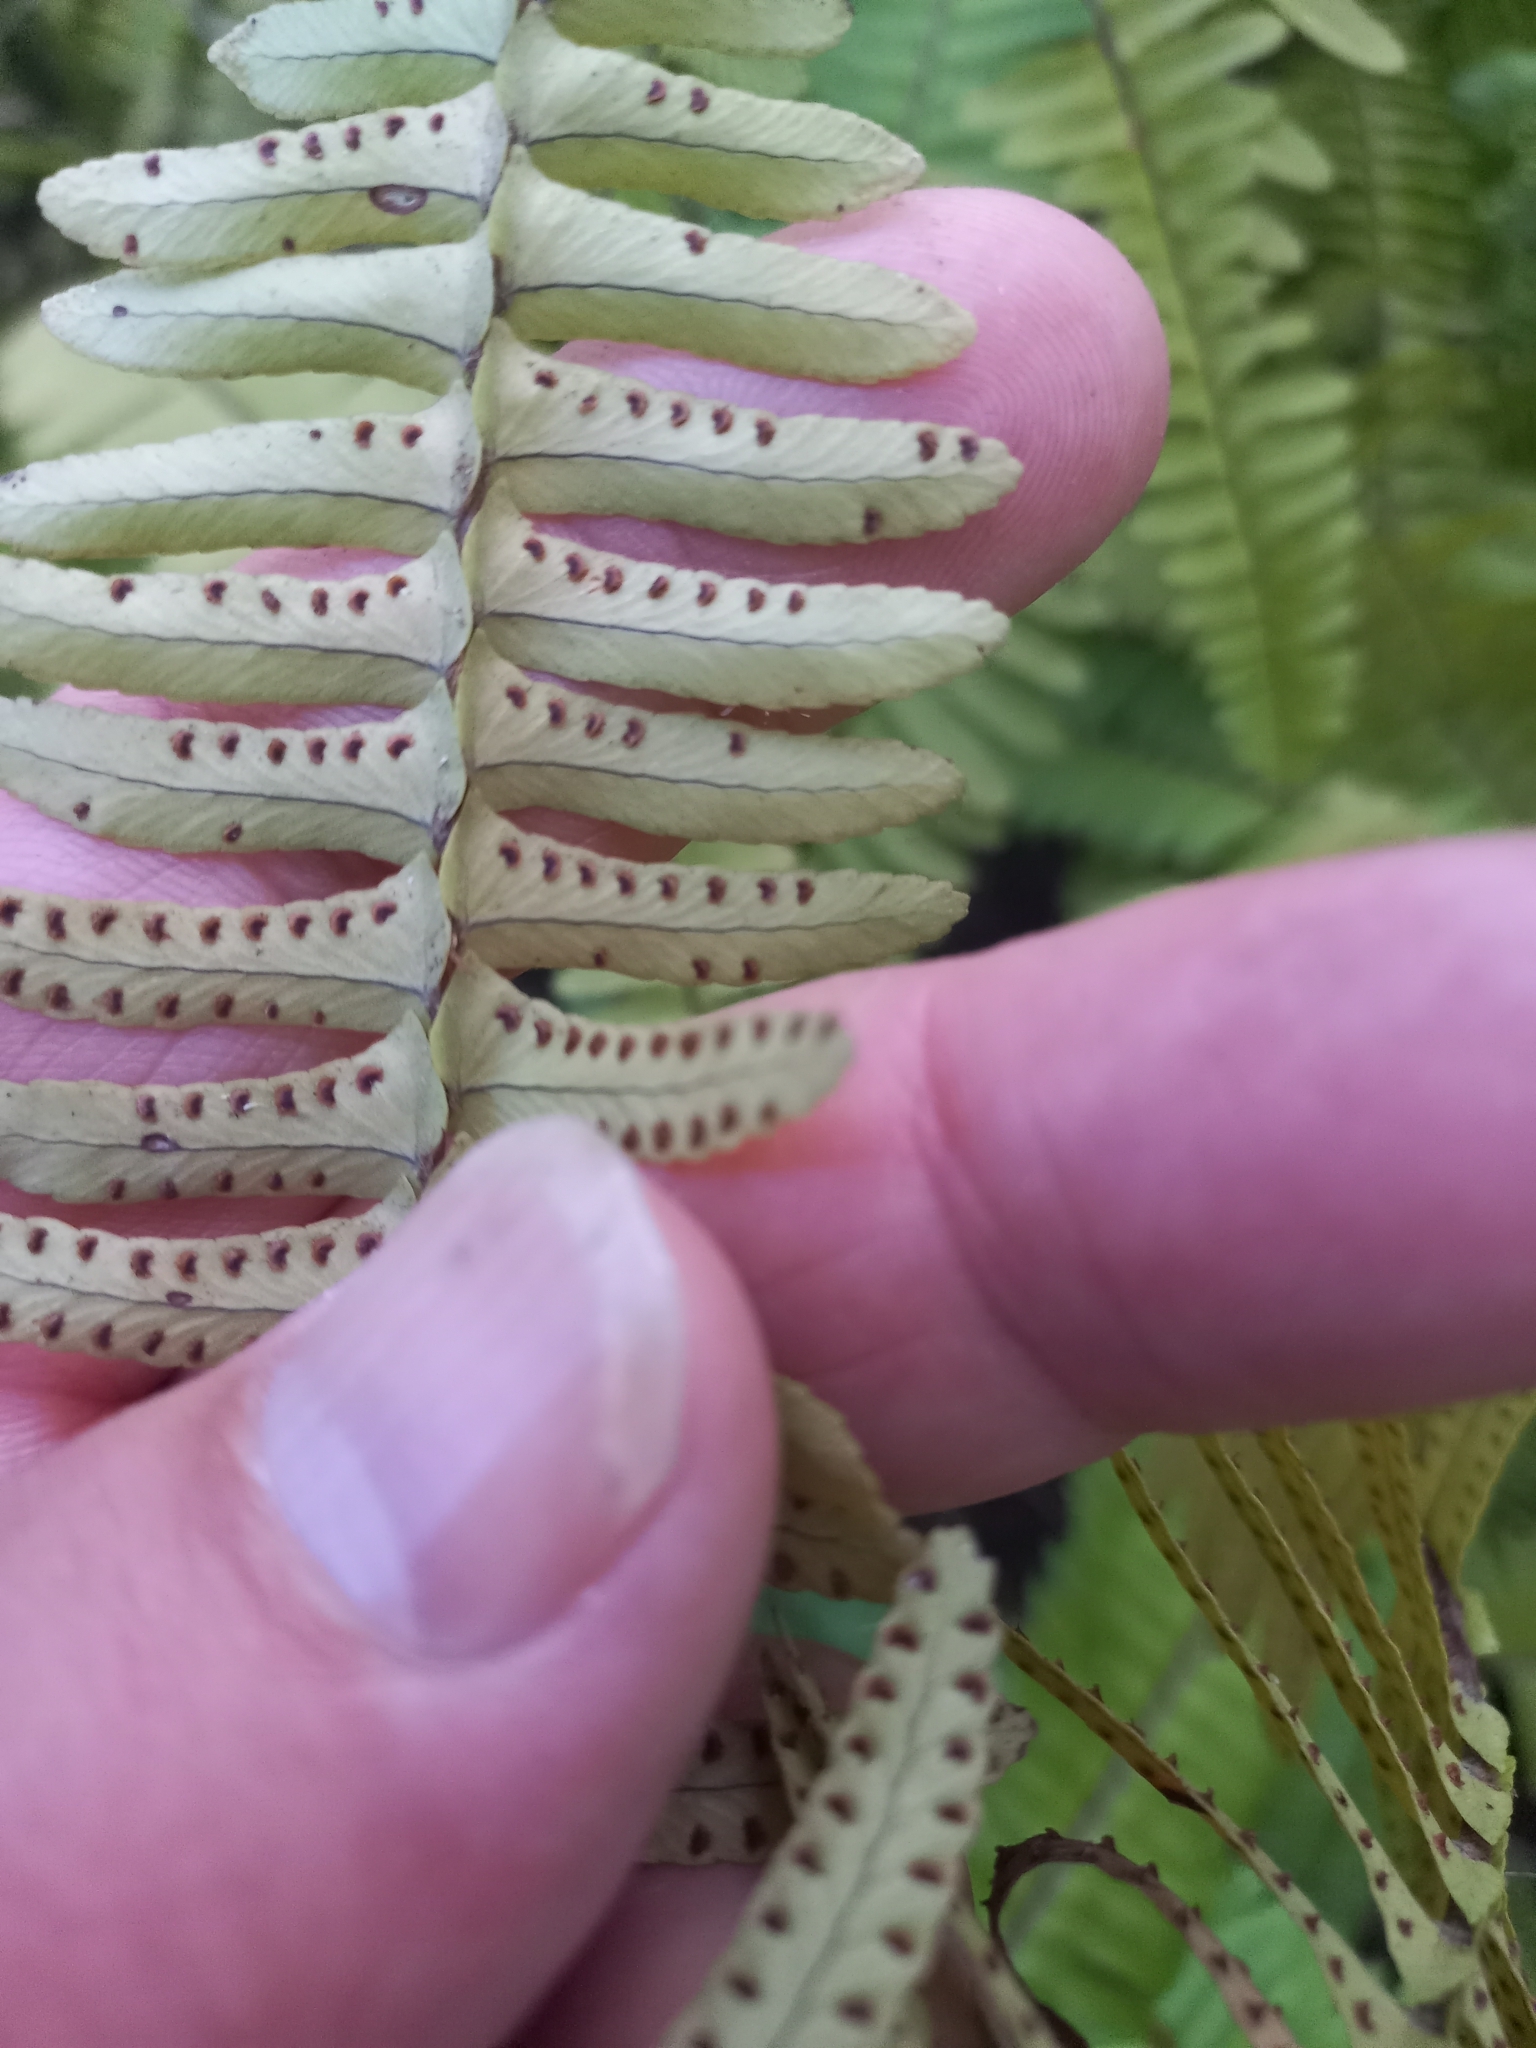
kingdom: Plantae
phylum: Tracheophyta
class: Polypodiopsida
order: Polypodiales
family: Nephrolepidaceae
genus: Nephrolepis
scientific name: Nephrolepis cordifolia
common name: Narrow swordfern
